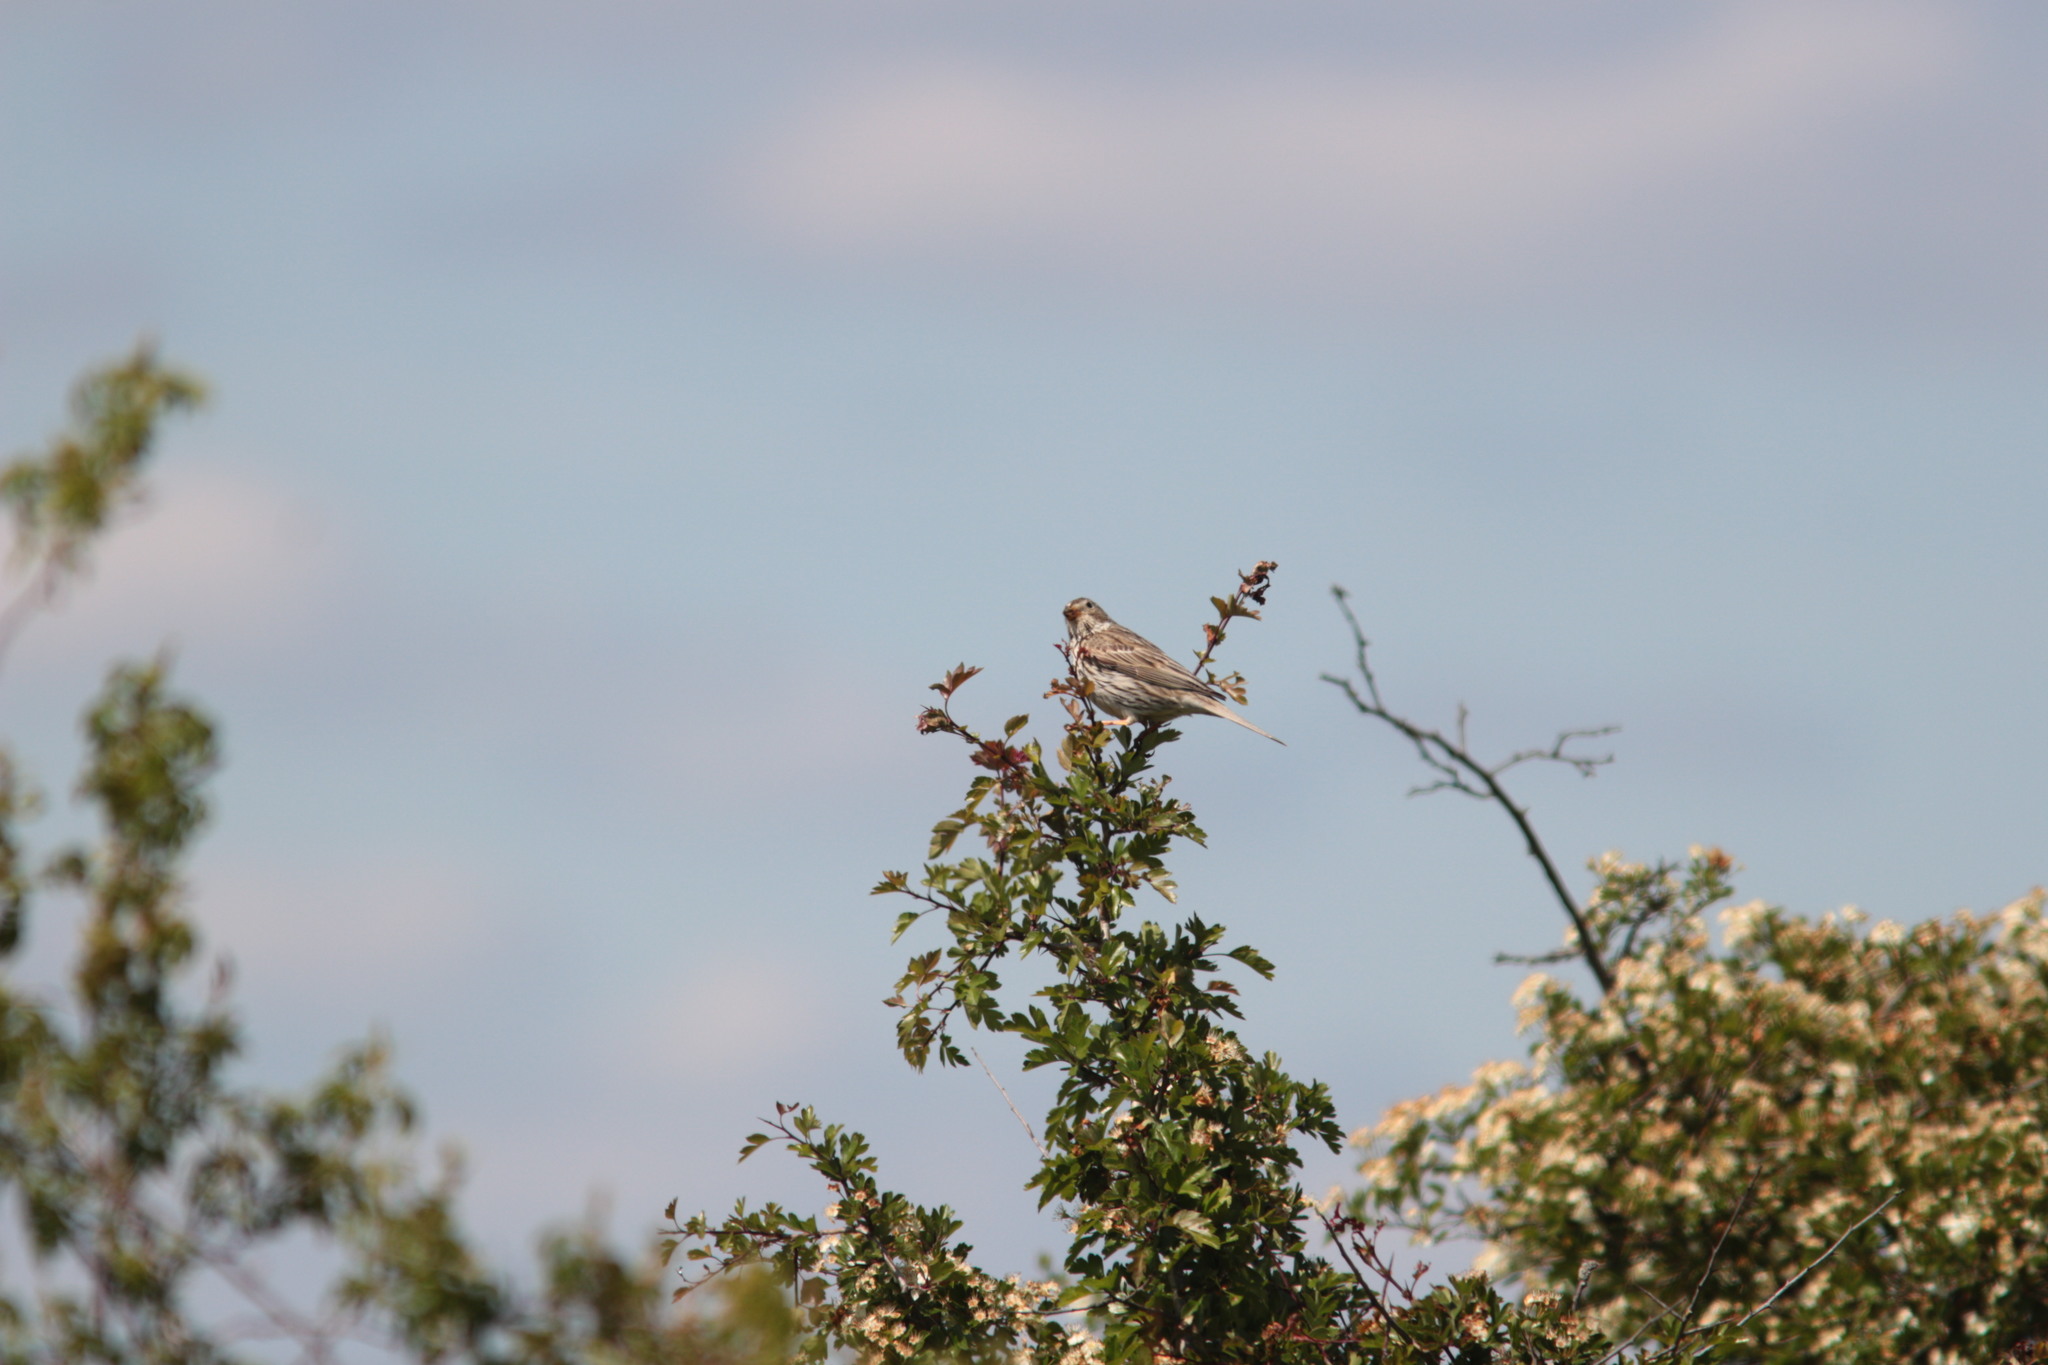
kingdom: Animalia
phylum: Chordata
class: Aves
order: Passeriformes
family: Emberizidae
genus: Emberiza
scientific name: Emberiza calandra
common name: Corn bunting
